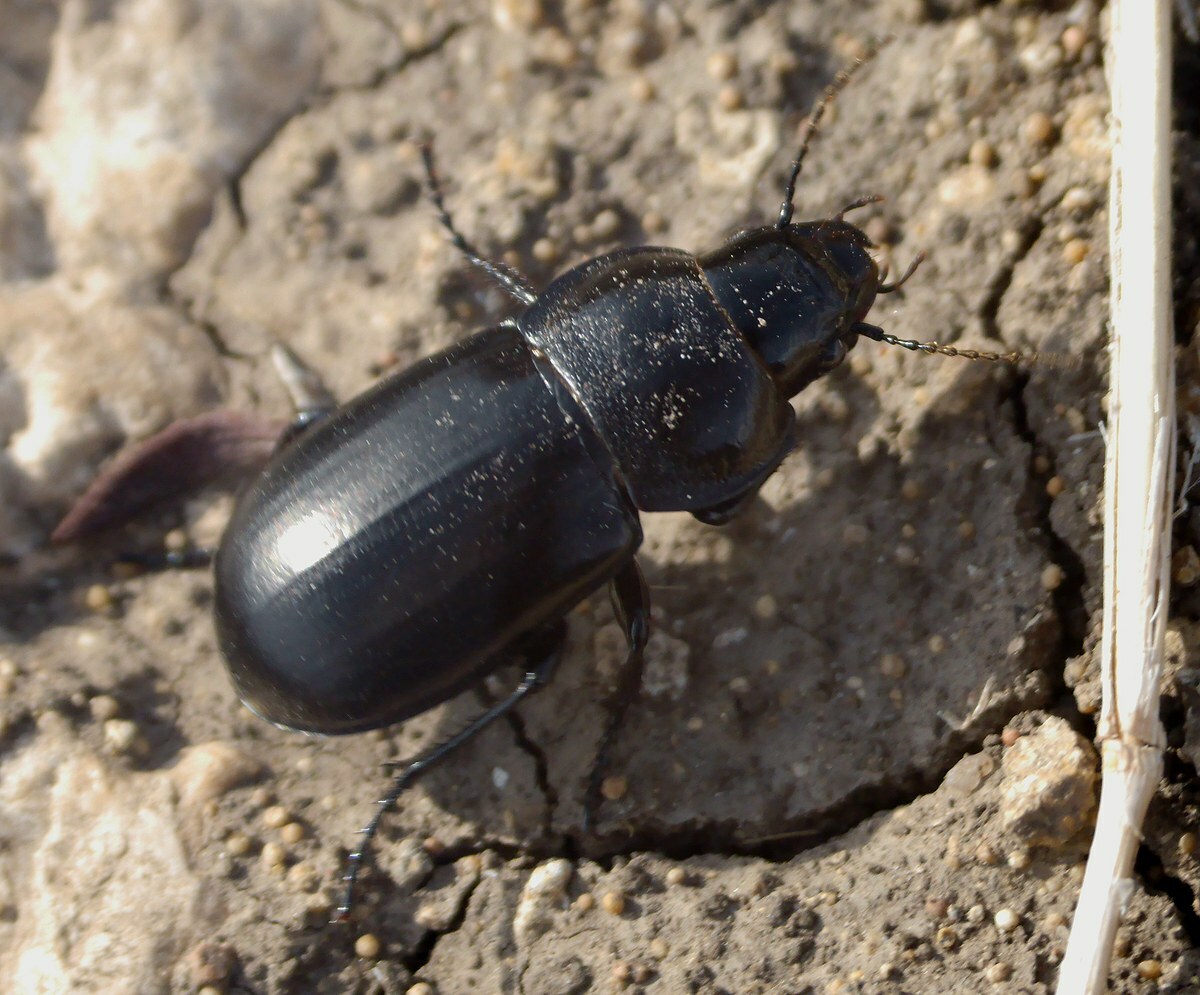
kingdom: Animalia
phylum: Arthropoda
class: Insecta
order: Coleoptera
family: Carabidae
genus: Zabrus
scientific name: Zabrus spinipes
